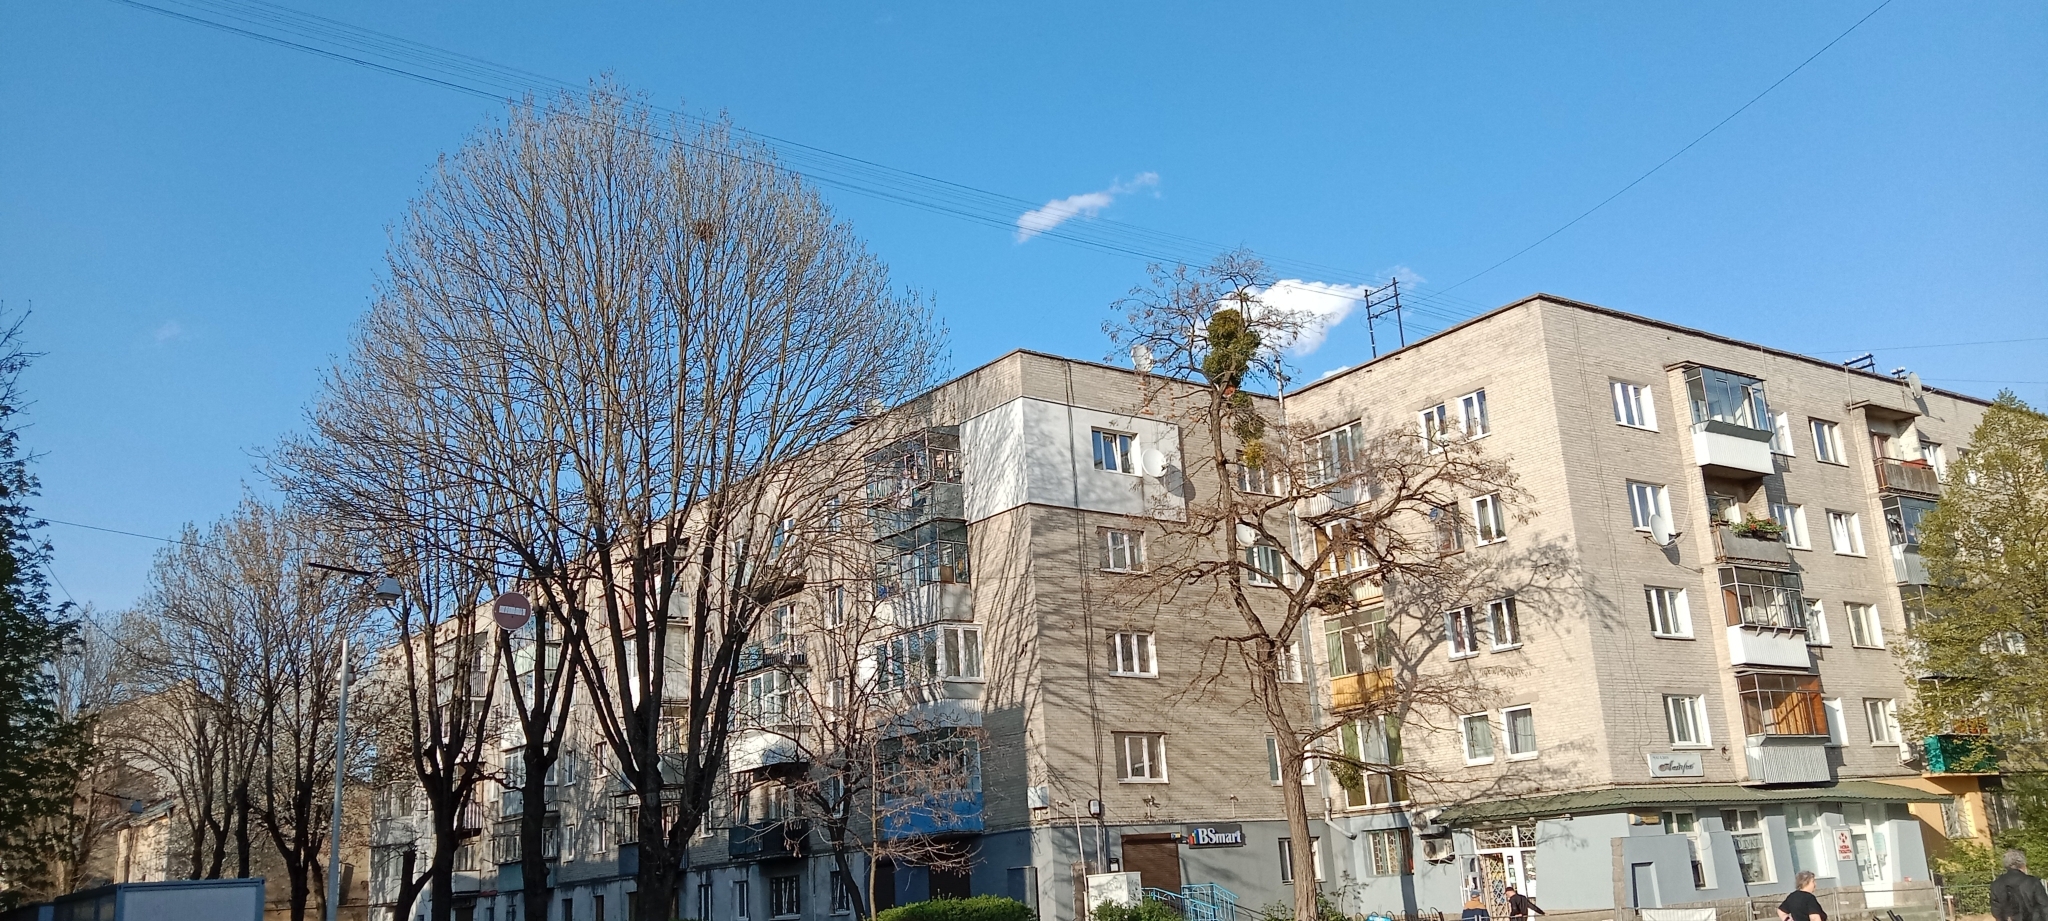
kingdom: Plantae
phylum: Tracheophyta
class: Magnoliopsida
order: Santalales
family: Viscaceae
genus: Viscum
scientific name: Viscum album
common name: Mistletoe
